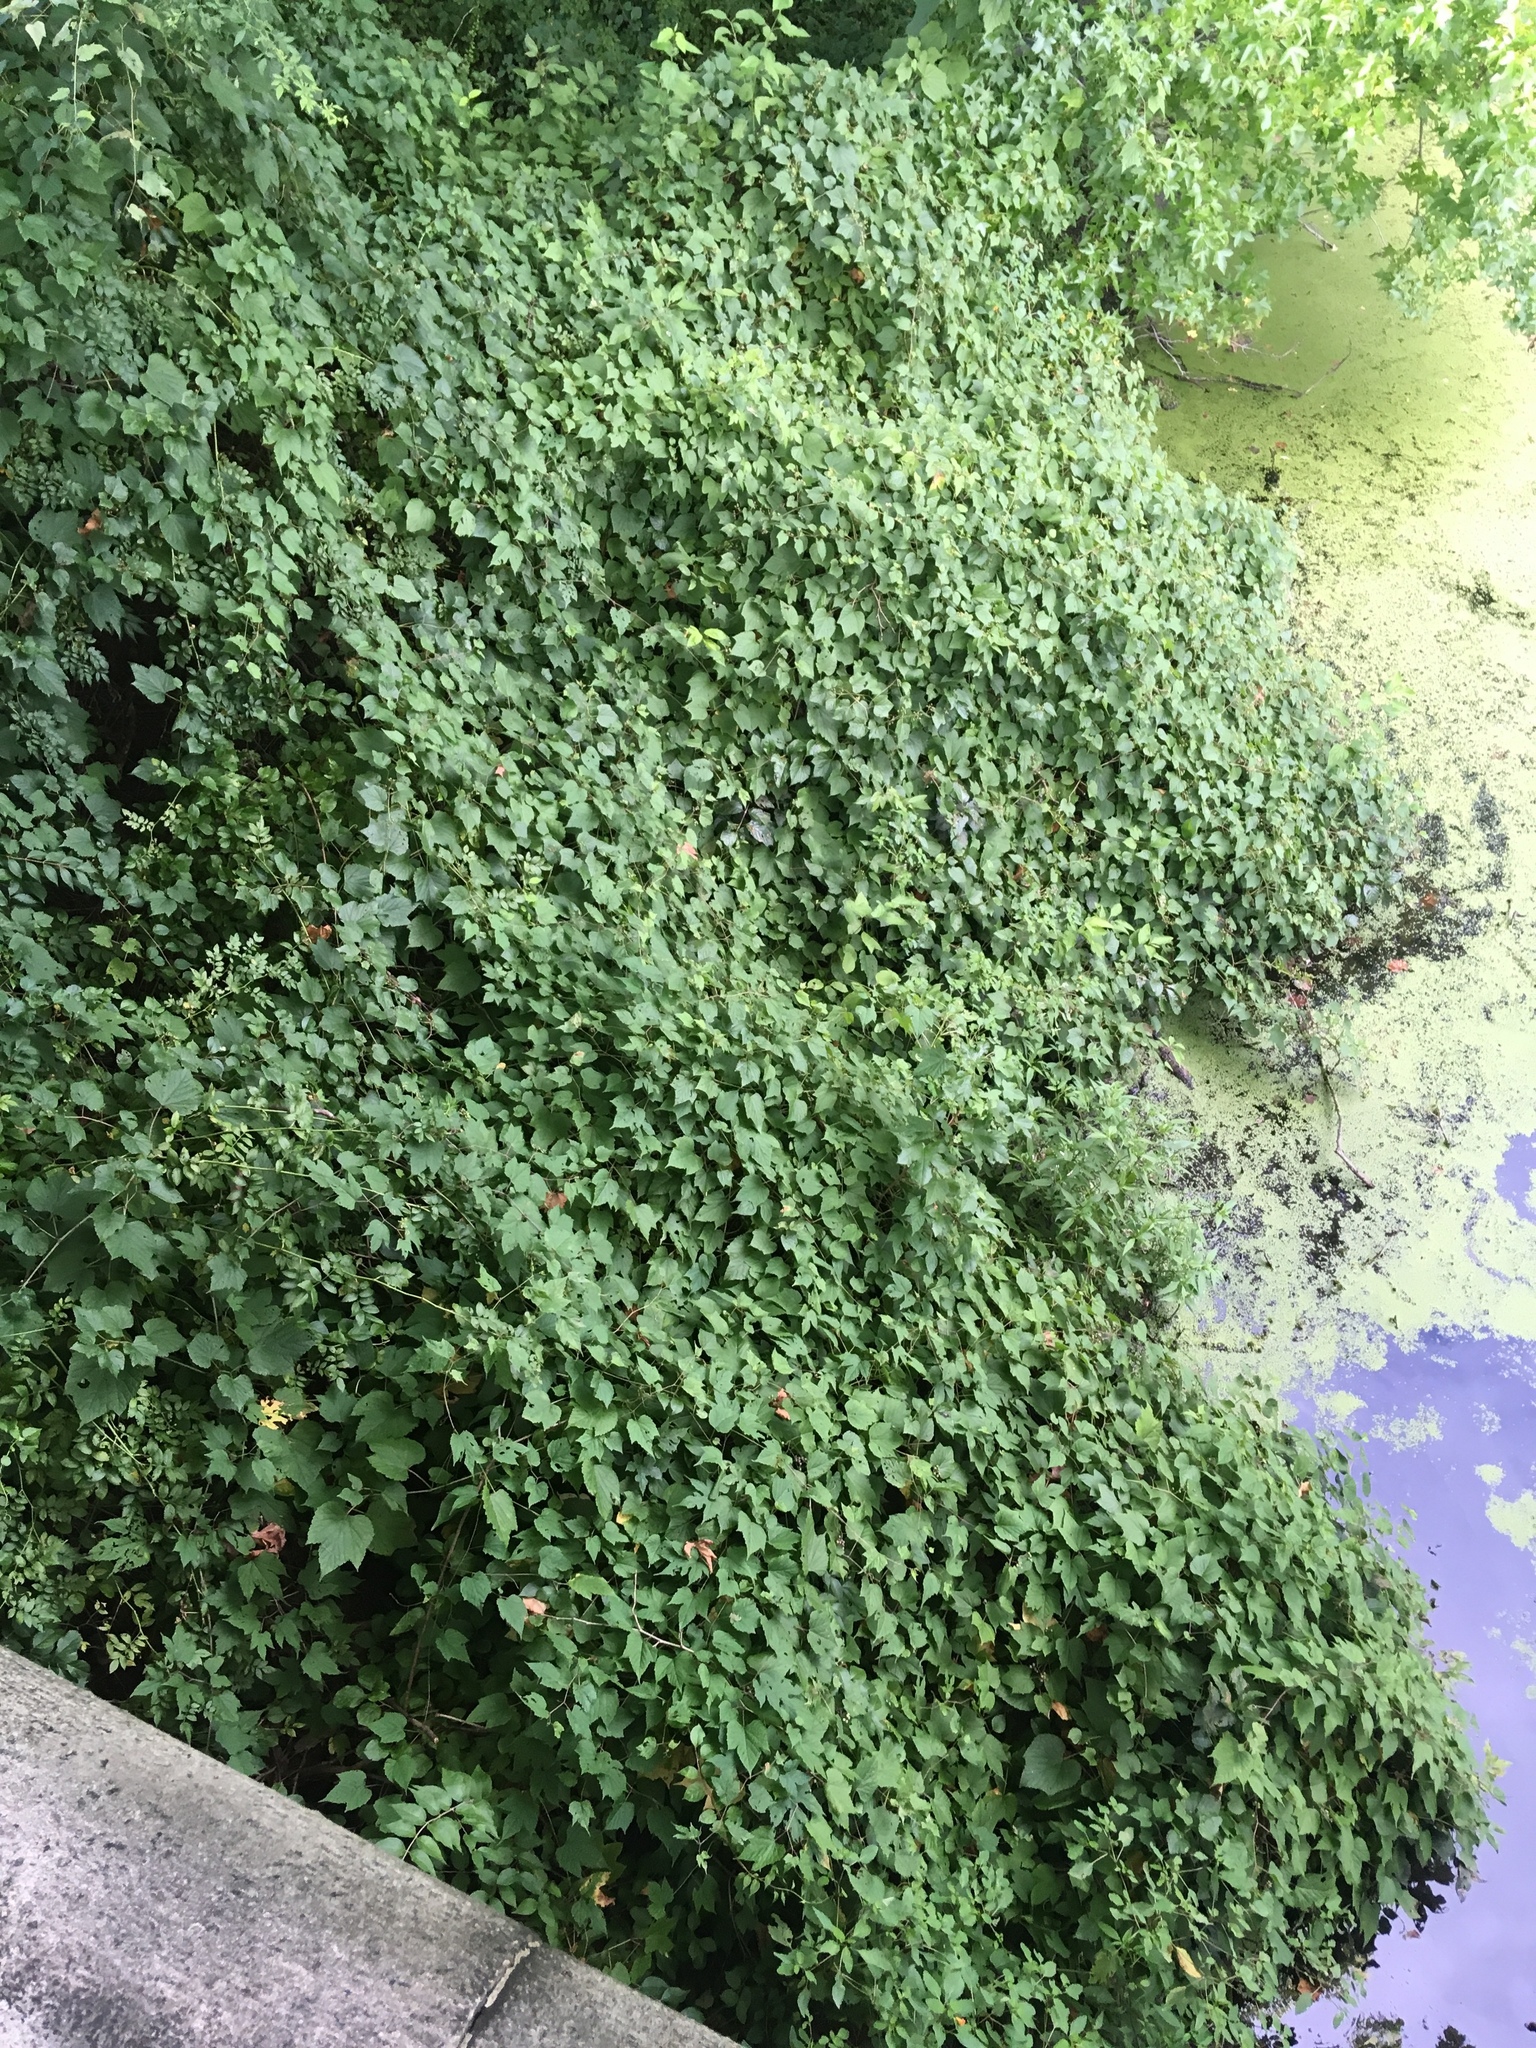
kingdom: Plantae
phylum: Tracheophyta
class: Magnoliopsida
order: Vitales
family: Vitaceae
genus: Ampelopsis
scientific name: Ampelopsis glandulosa
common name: Amur peppervine
